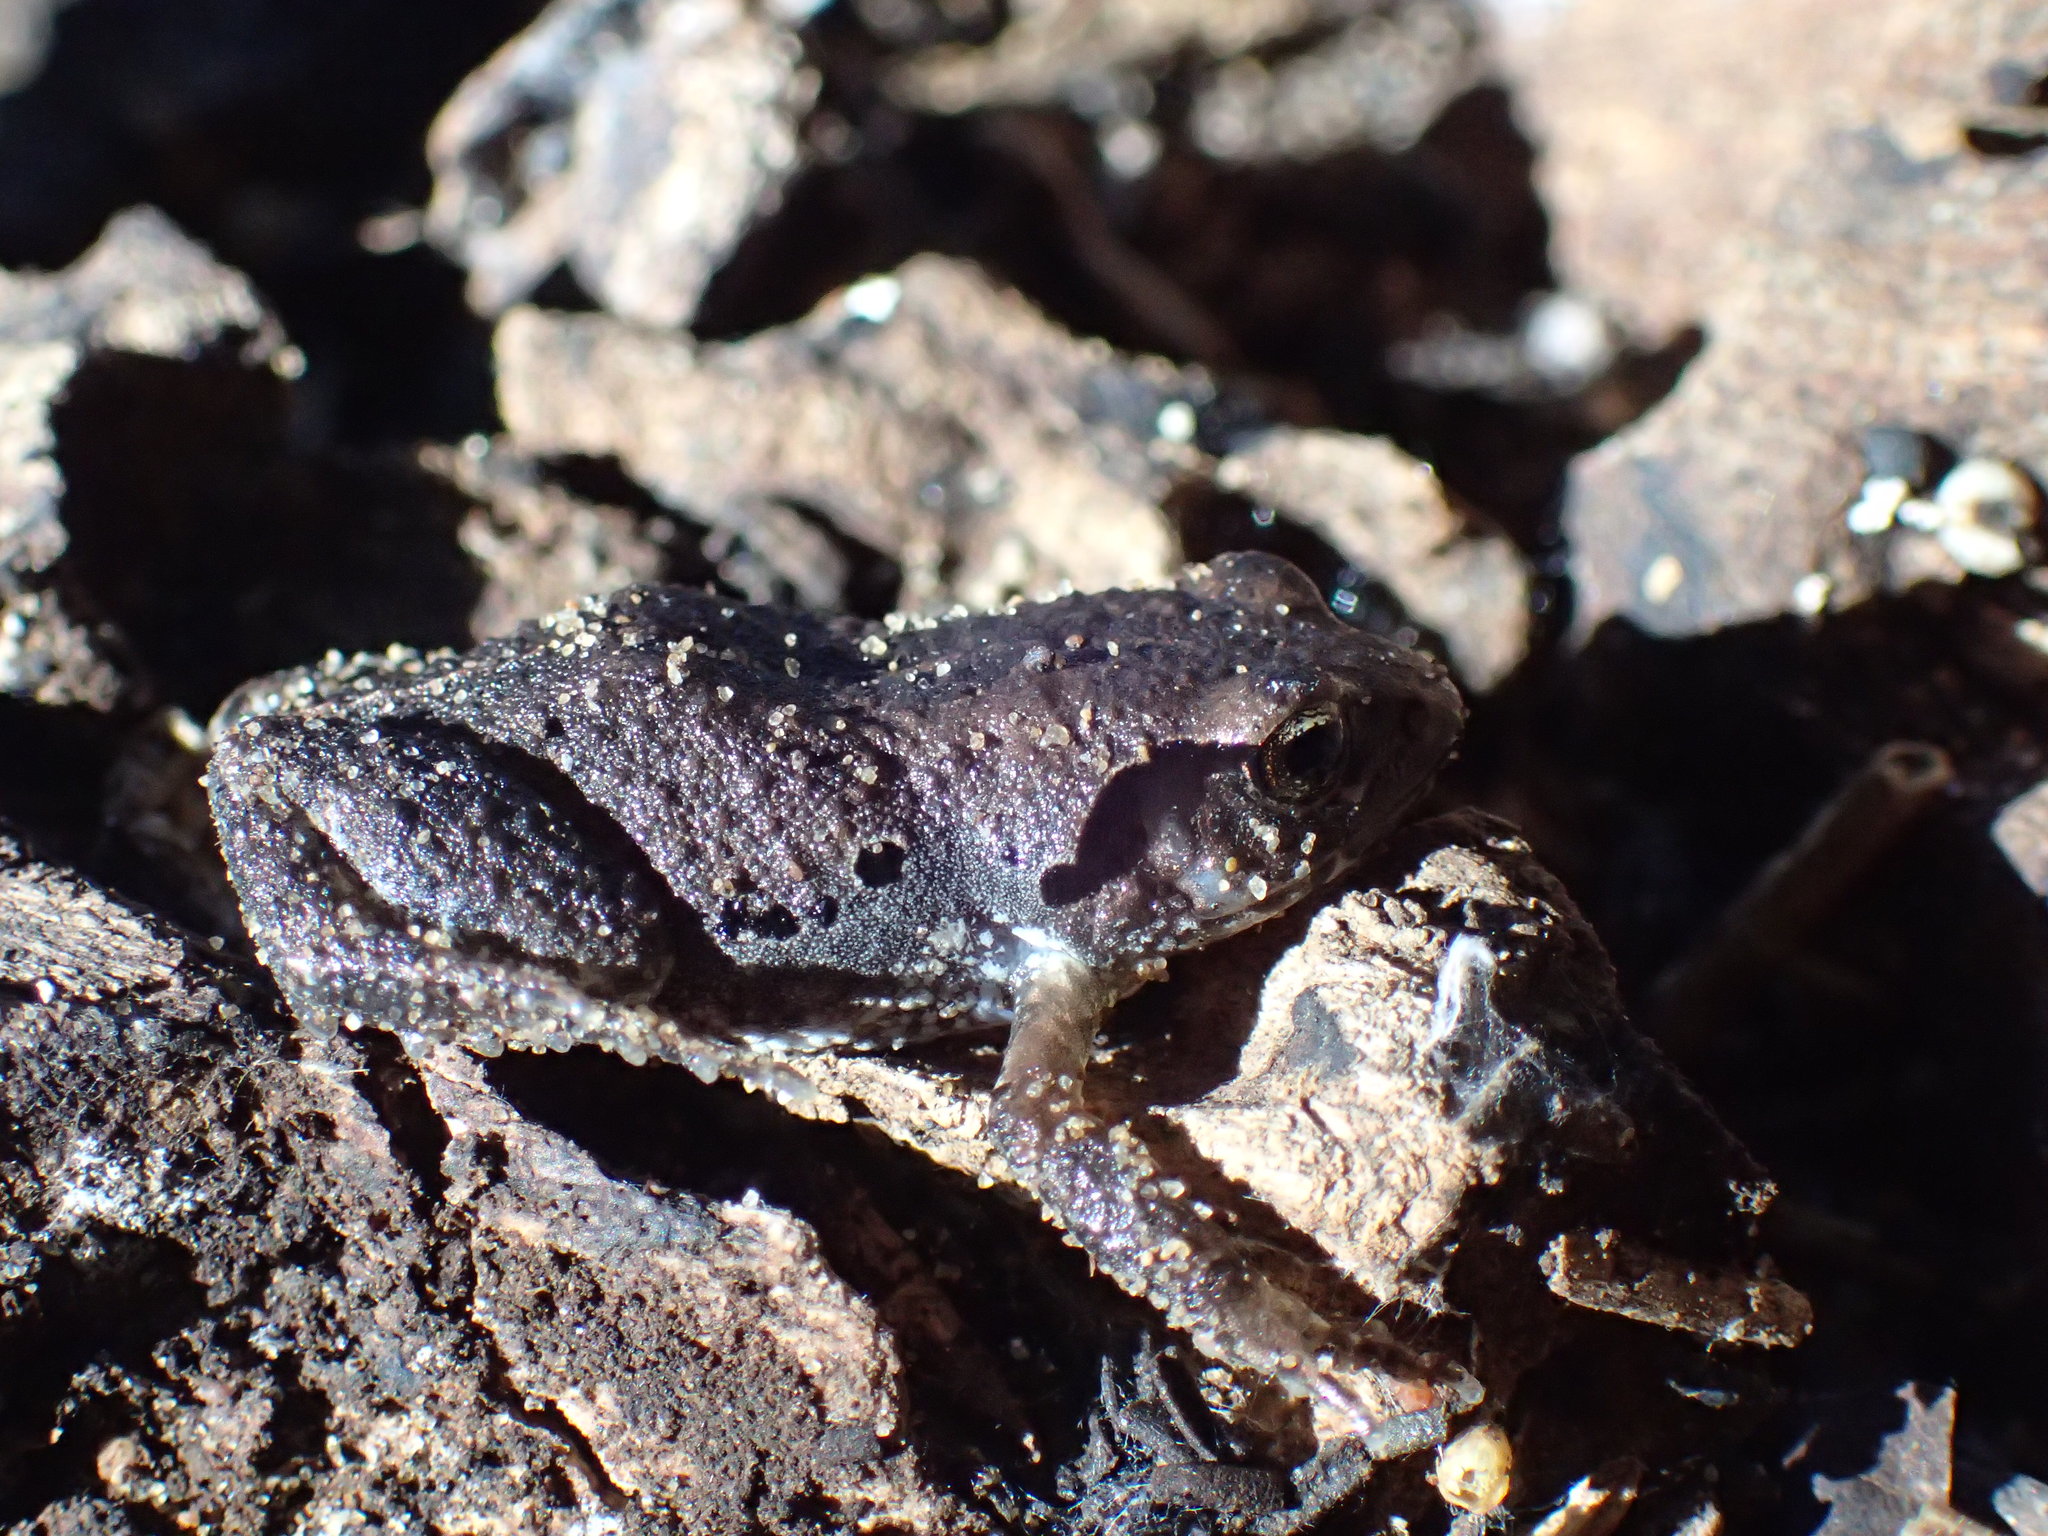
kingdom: Animalia
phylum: Chordata
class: Amphibia
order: Anura
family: Arthroleptidae
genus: Arthroleptis
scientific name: Arthroleptis wahlbergii
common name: Bush squeaker
